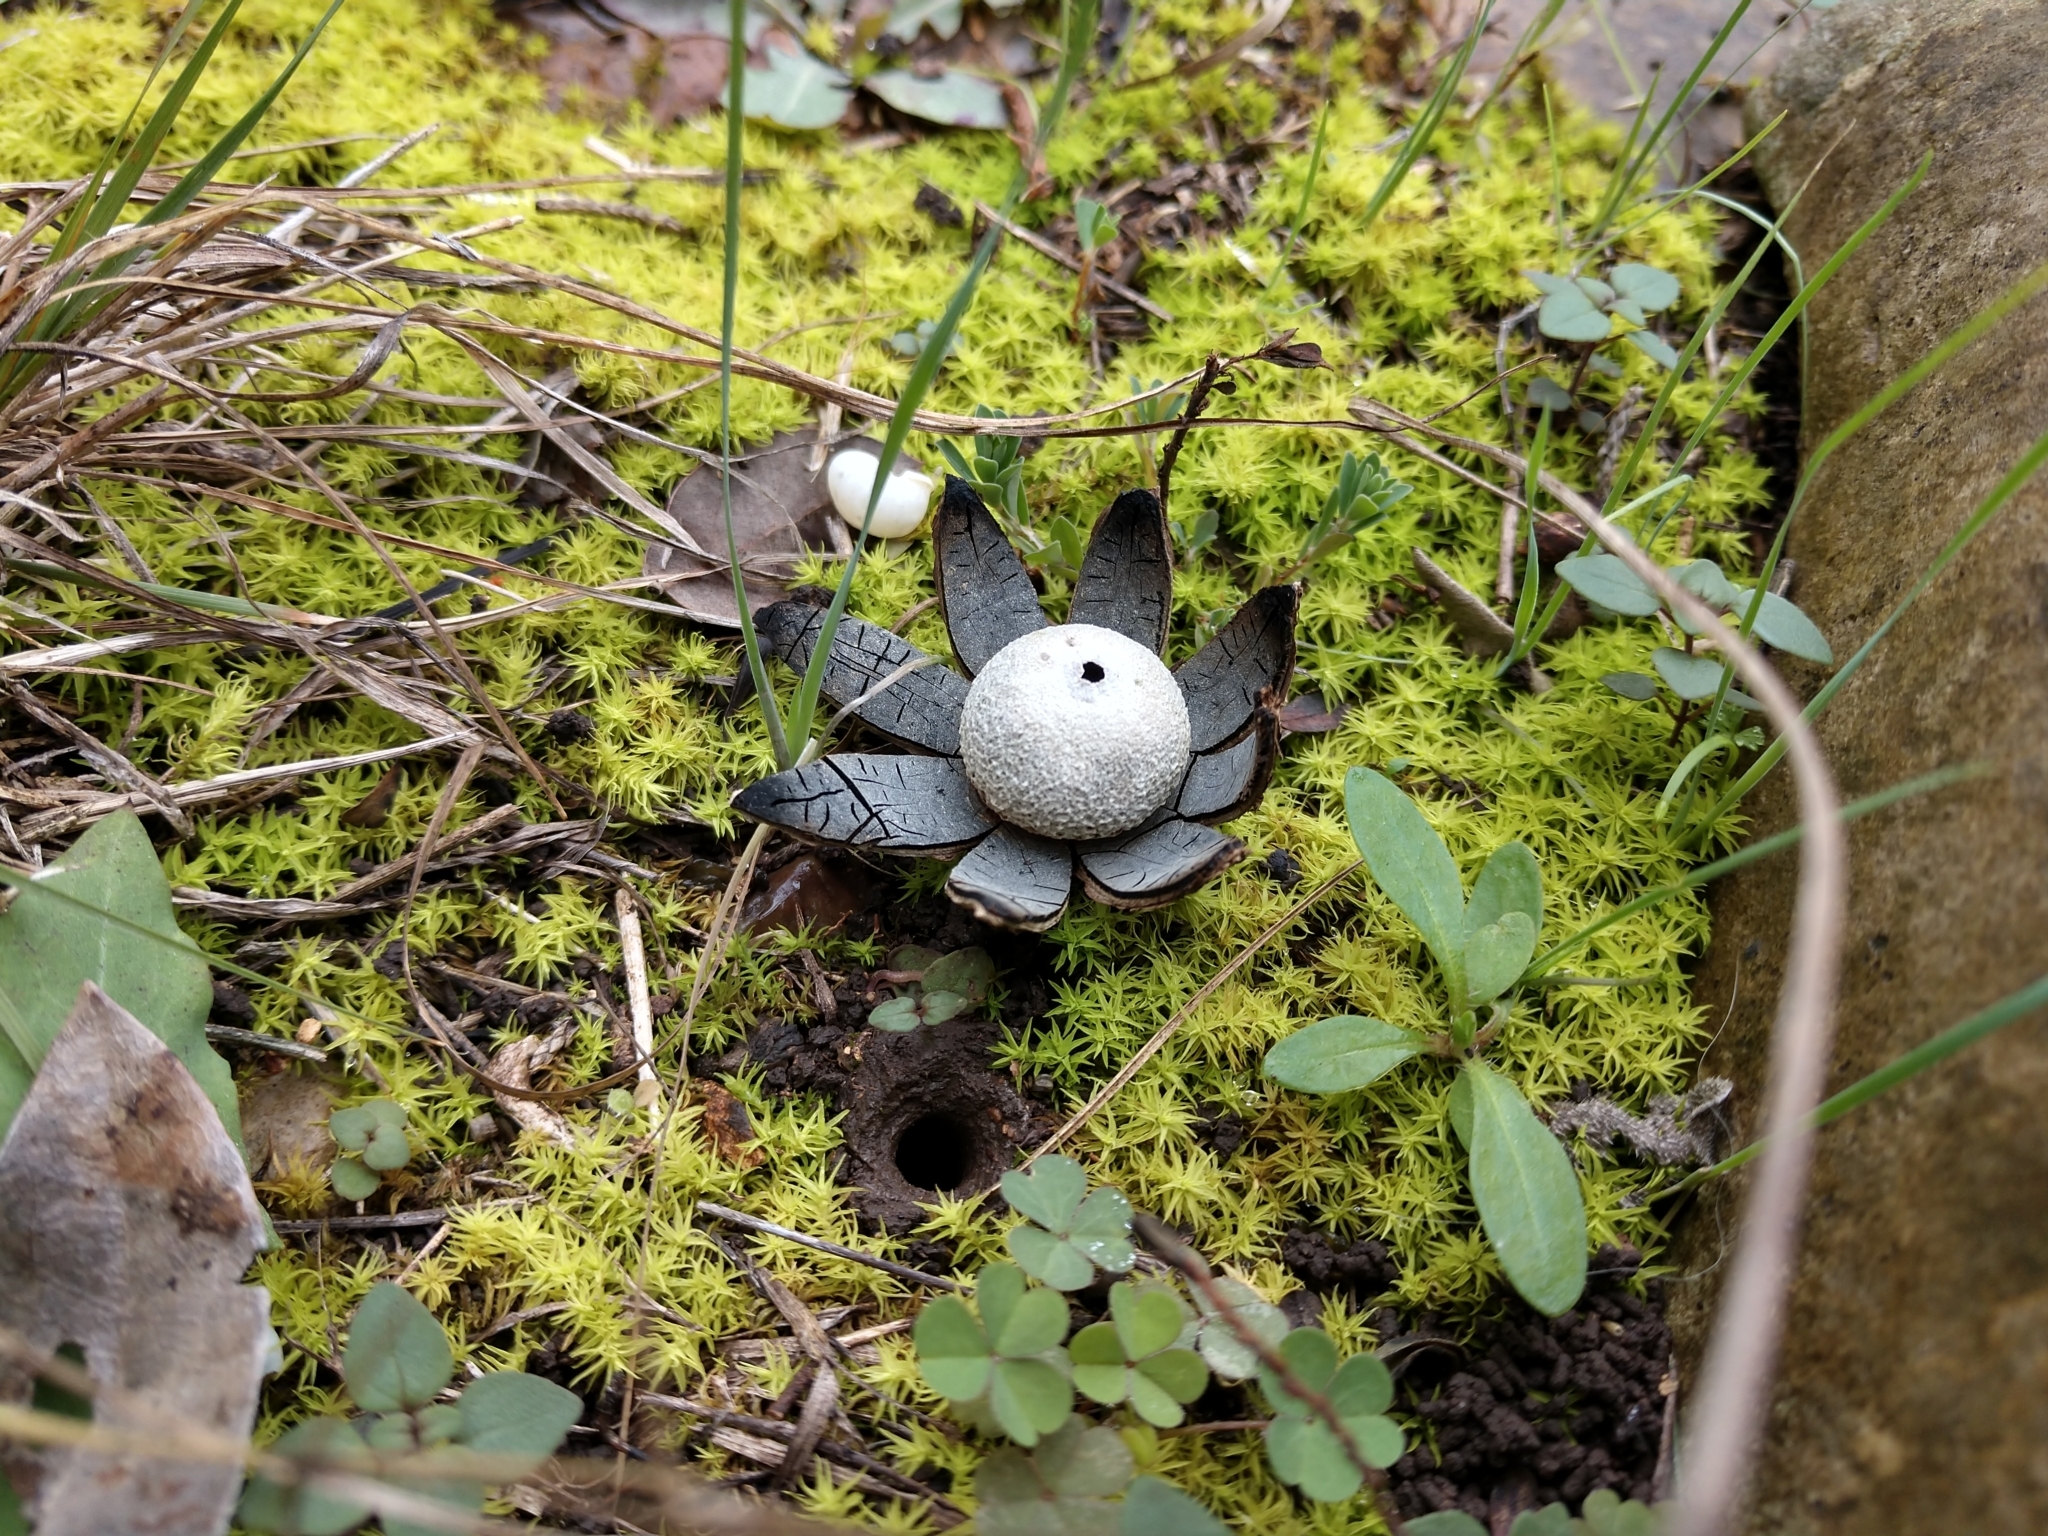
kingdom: Fungi
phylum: Basidiomycota
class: Agaricomycetes
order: Boletales
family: Diplocystidiaceae
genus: Astraeus
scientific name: Astraeus morganii
